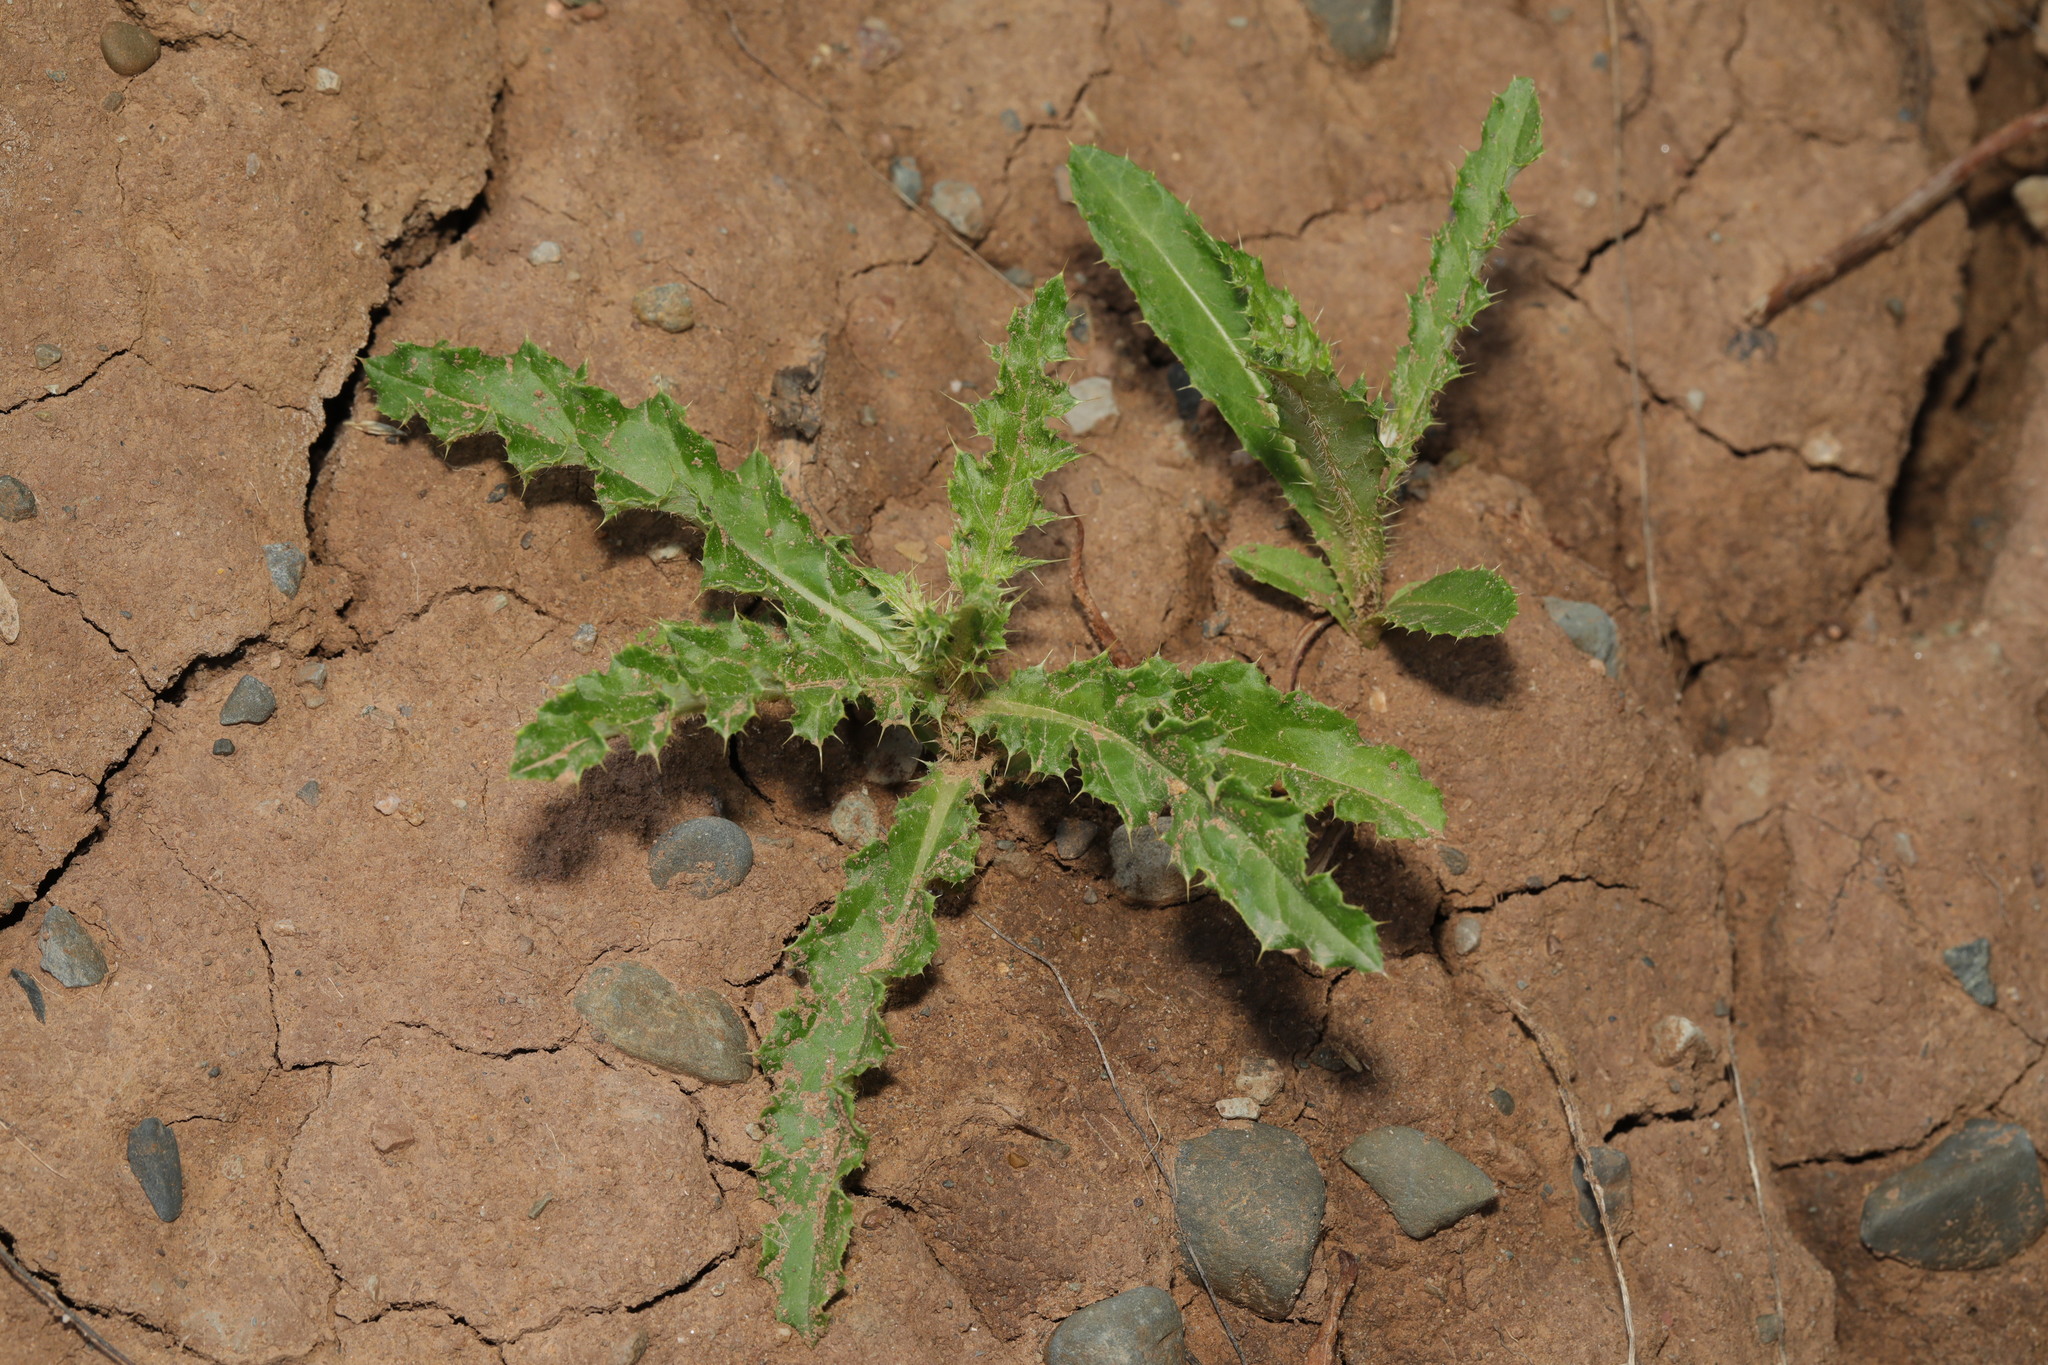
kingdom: Plantae
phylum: Tracheophyta
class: Magnoliopsida
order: Asterales
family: Asteraceae
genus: Cirsium
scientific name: Cirsium arvense
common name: Creeping thistle
